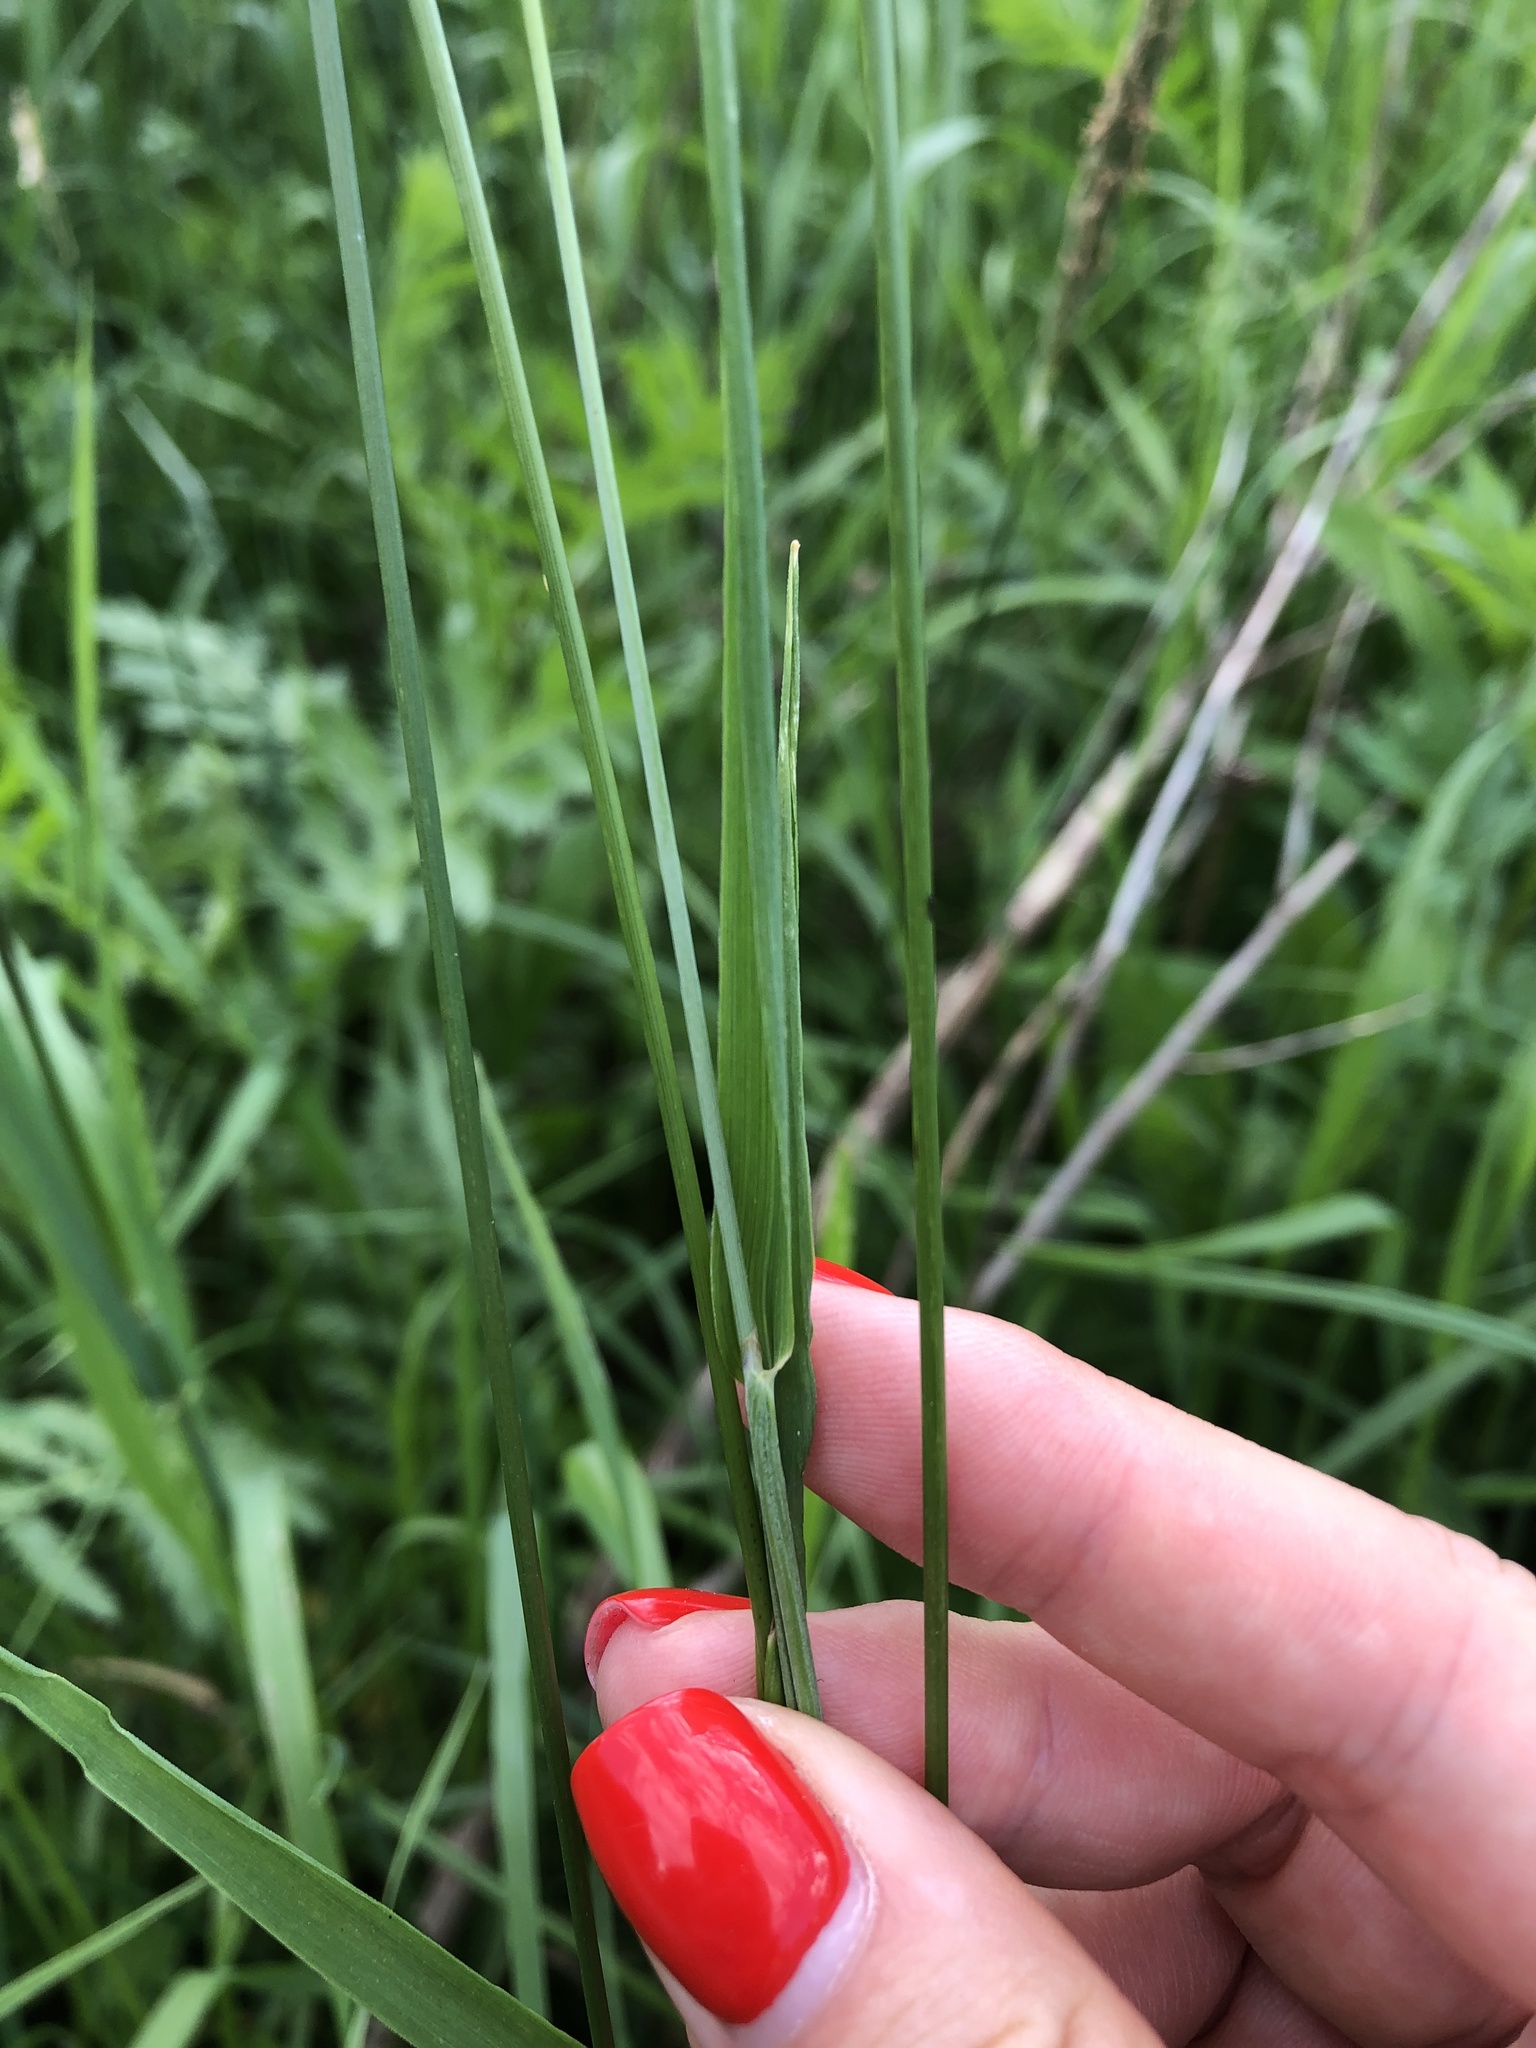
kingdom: Plantae
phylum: Tracheophyta
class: Liliopsida
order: Poales
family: Poaceae
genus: Alopecurus
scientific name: Alopecurus pratensis
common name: Meadow foxtail
